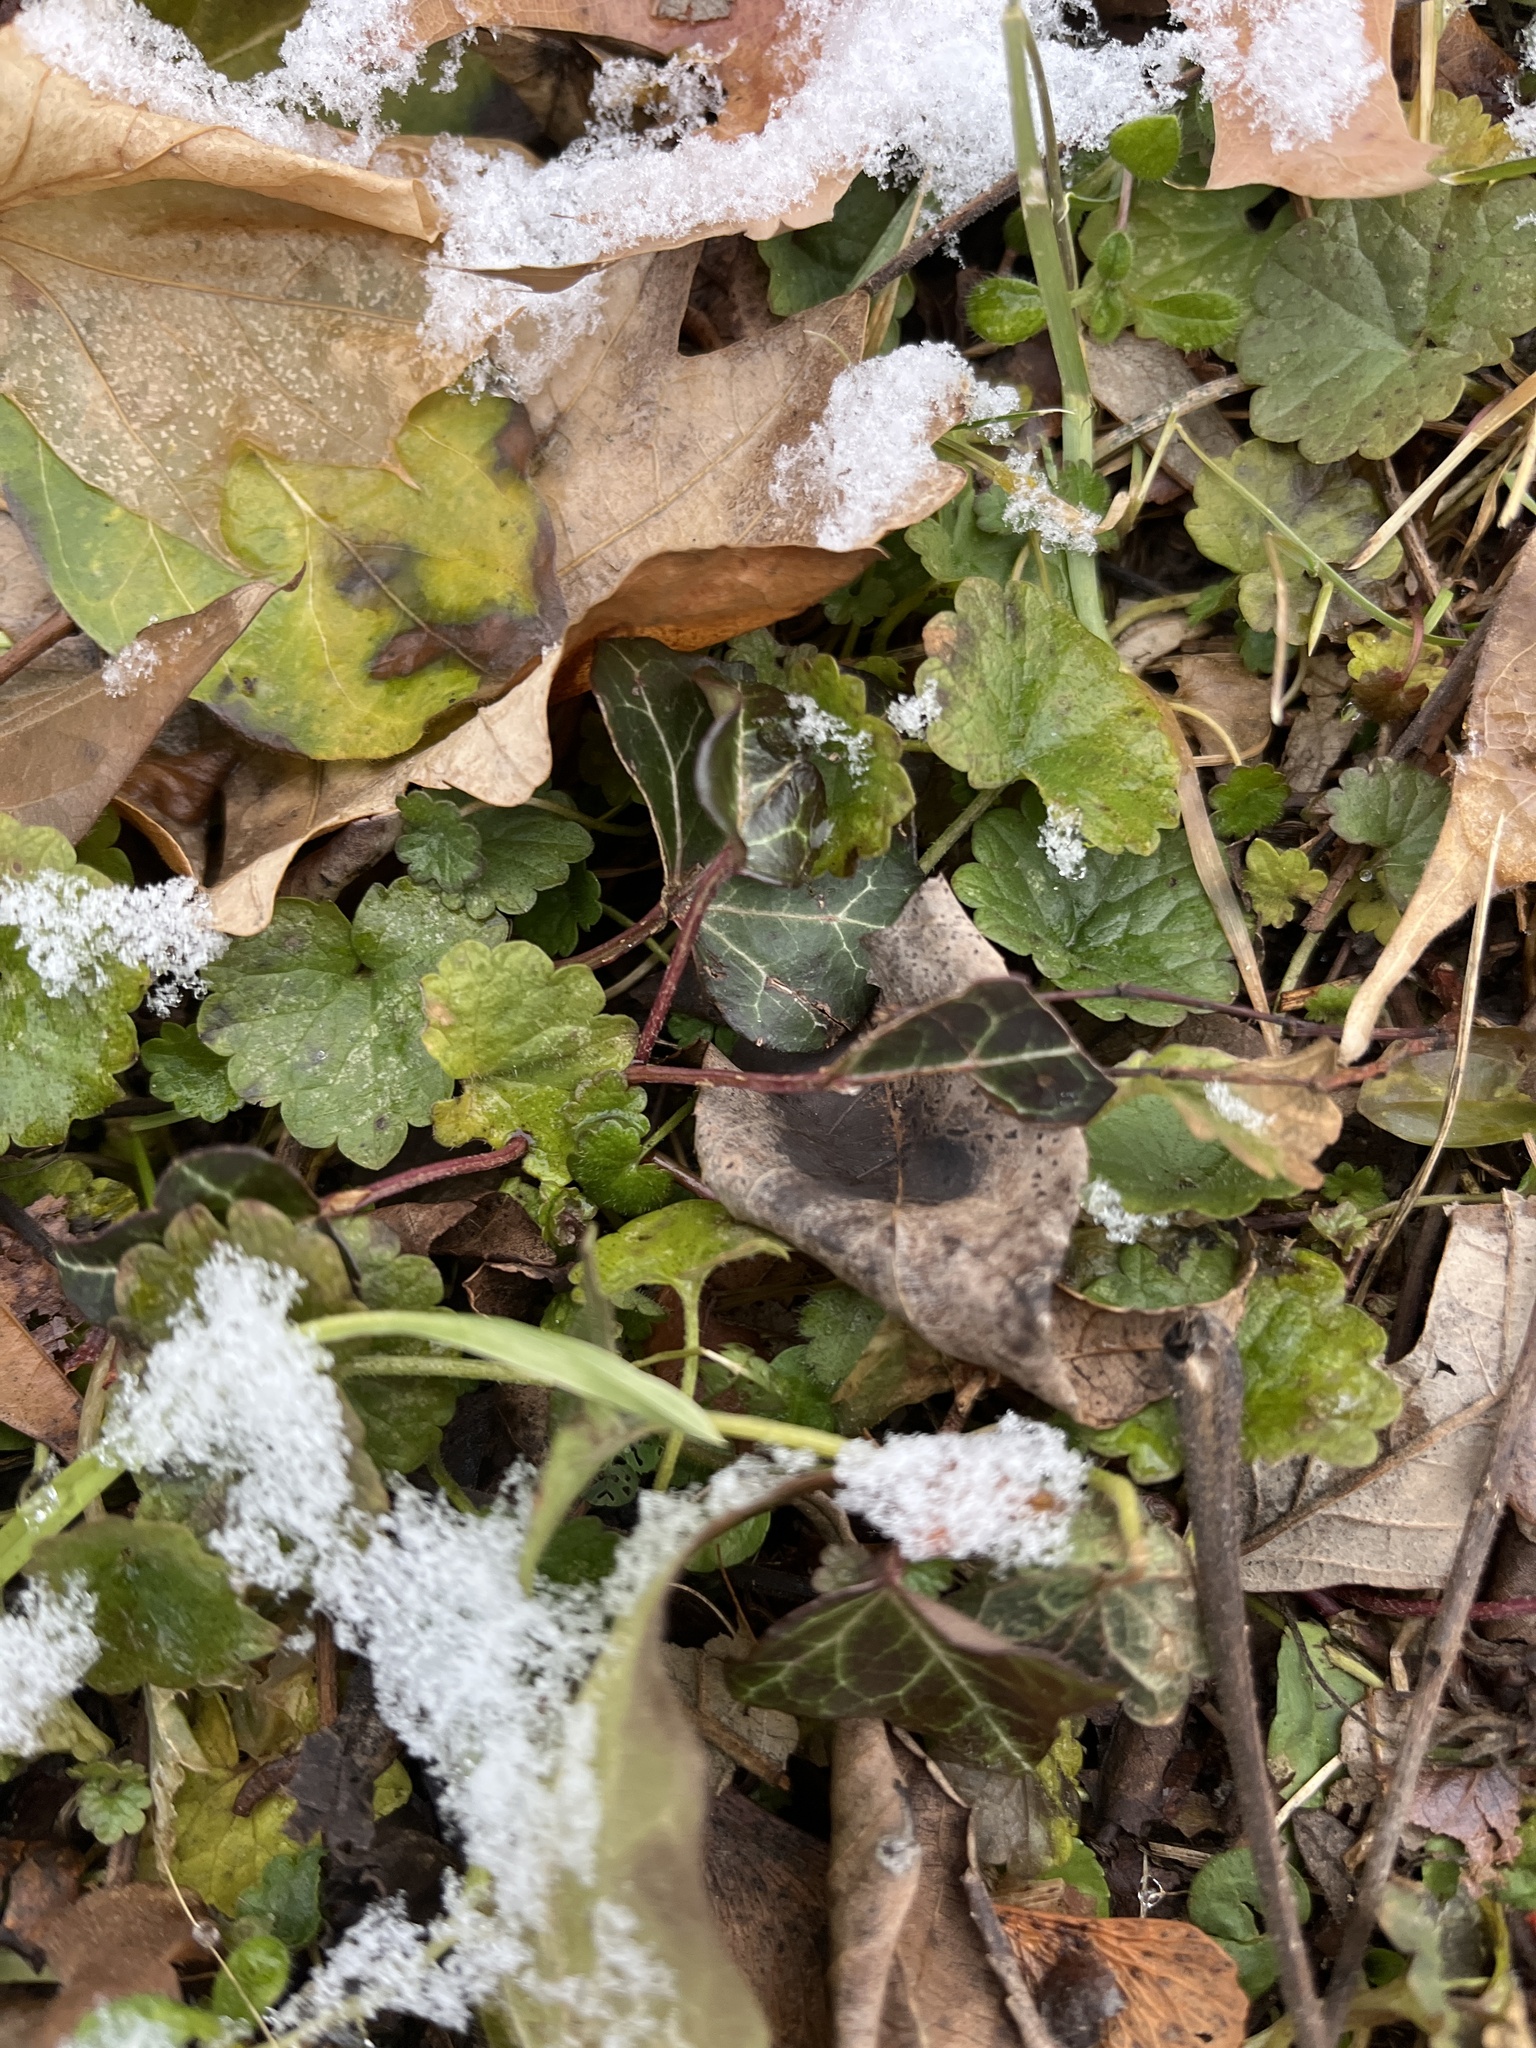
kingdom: Plantae
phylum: Tracheophyta
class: Magnoliopsida
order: Lamiales
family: Lamiaceae
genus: Glechoma
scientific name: Glechoma hederacea
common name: Ground ivy
